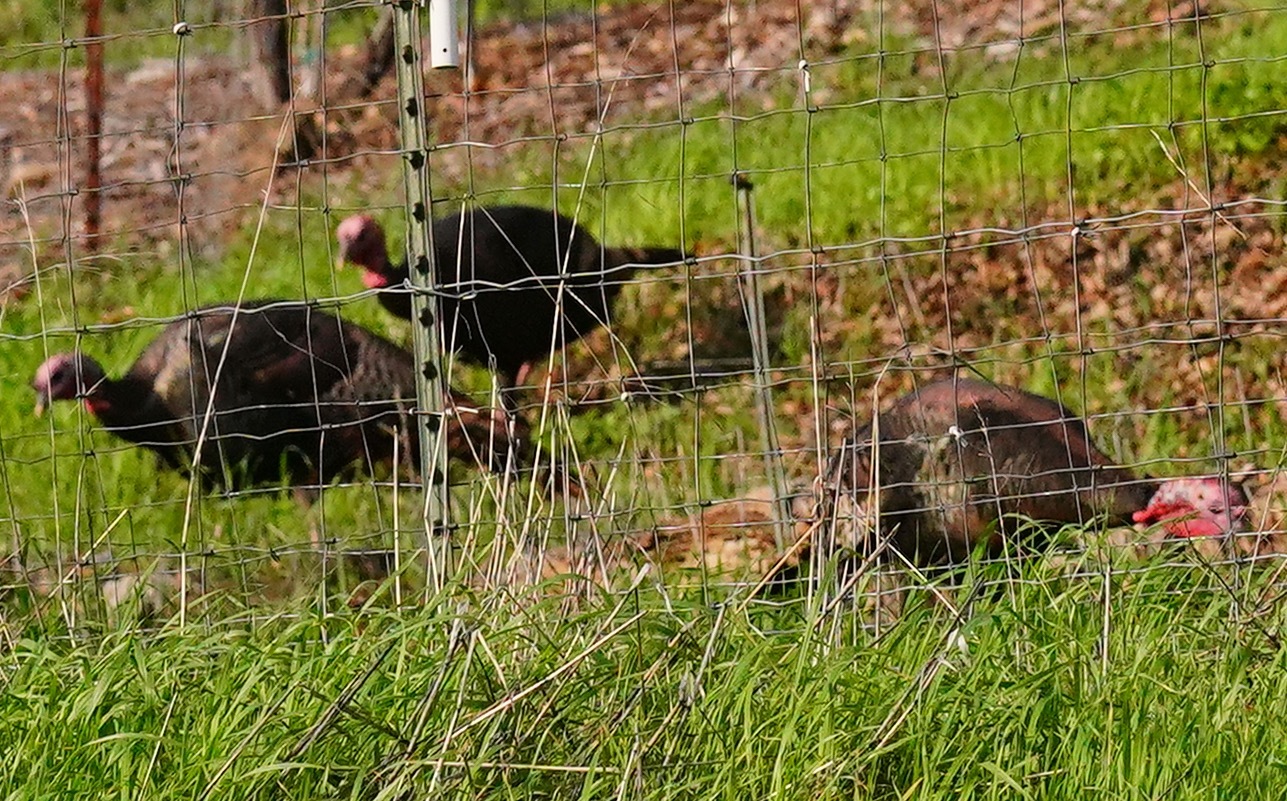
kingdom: Animalia
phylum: Chordata
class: Aves
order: Galliformes
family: Phasianidae
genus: Meleagris
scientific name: Meleagris gallopavo
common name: Wild turkey
